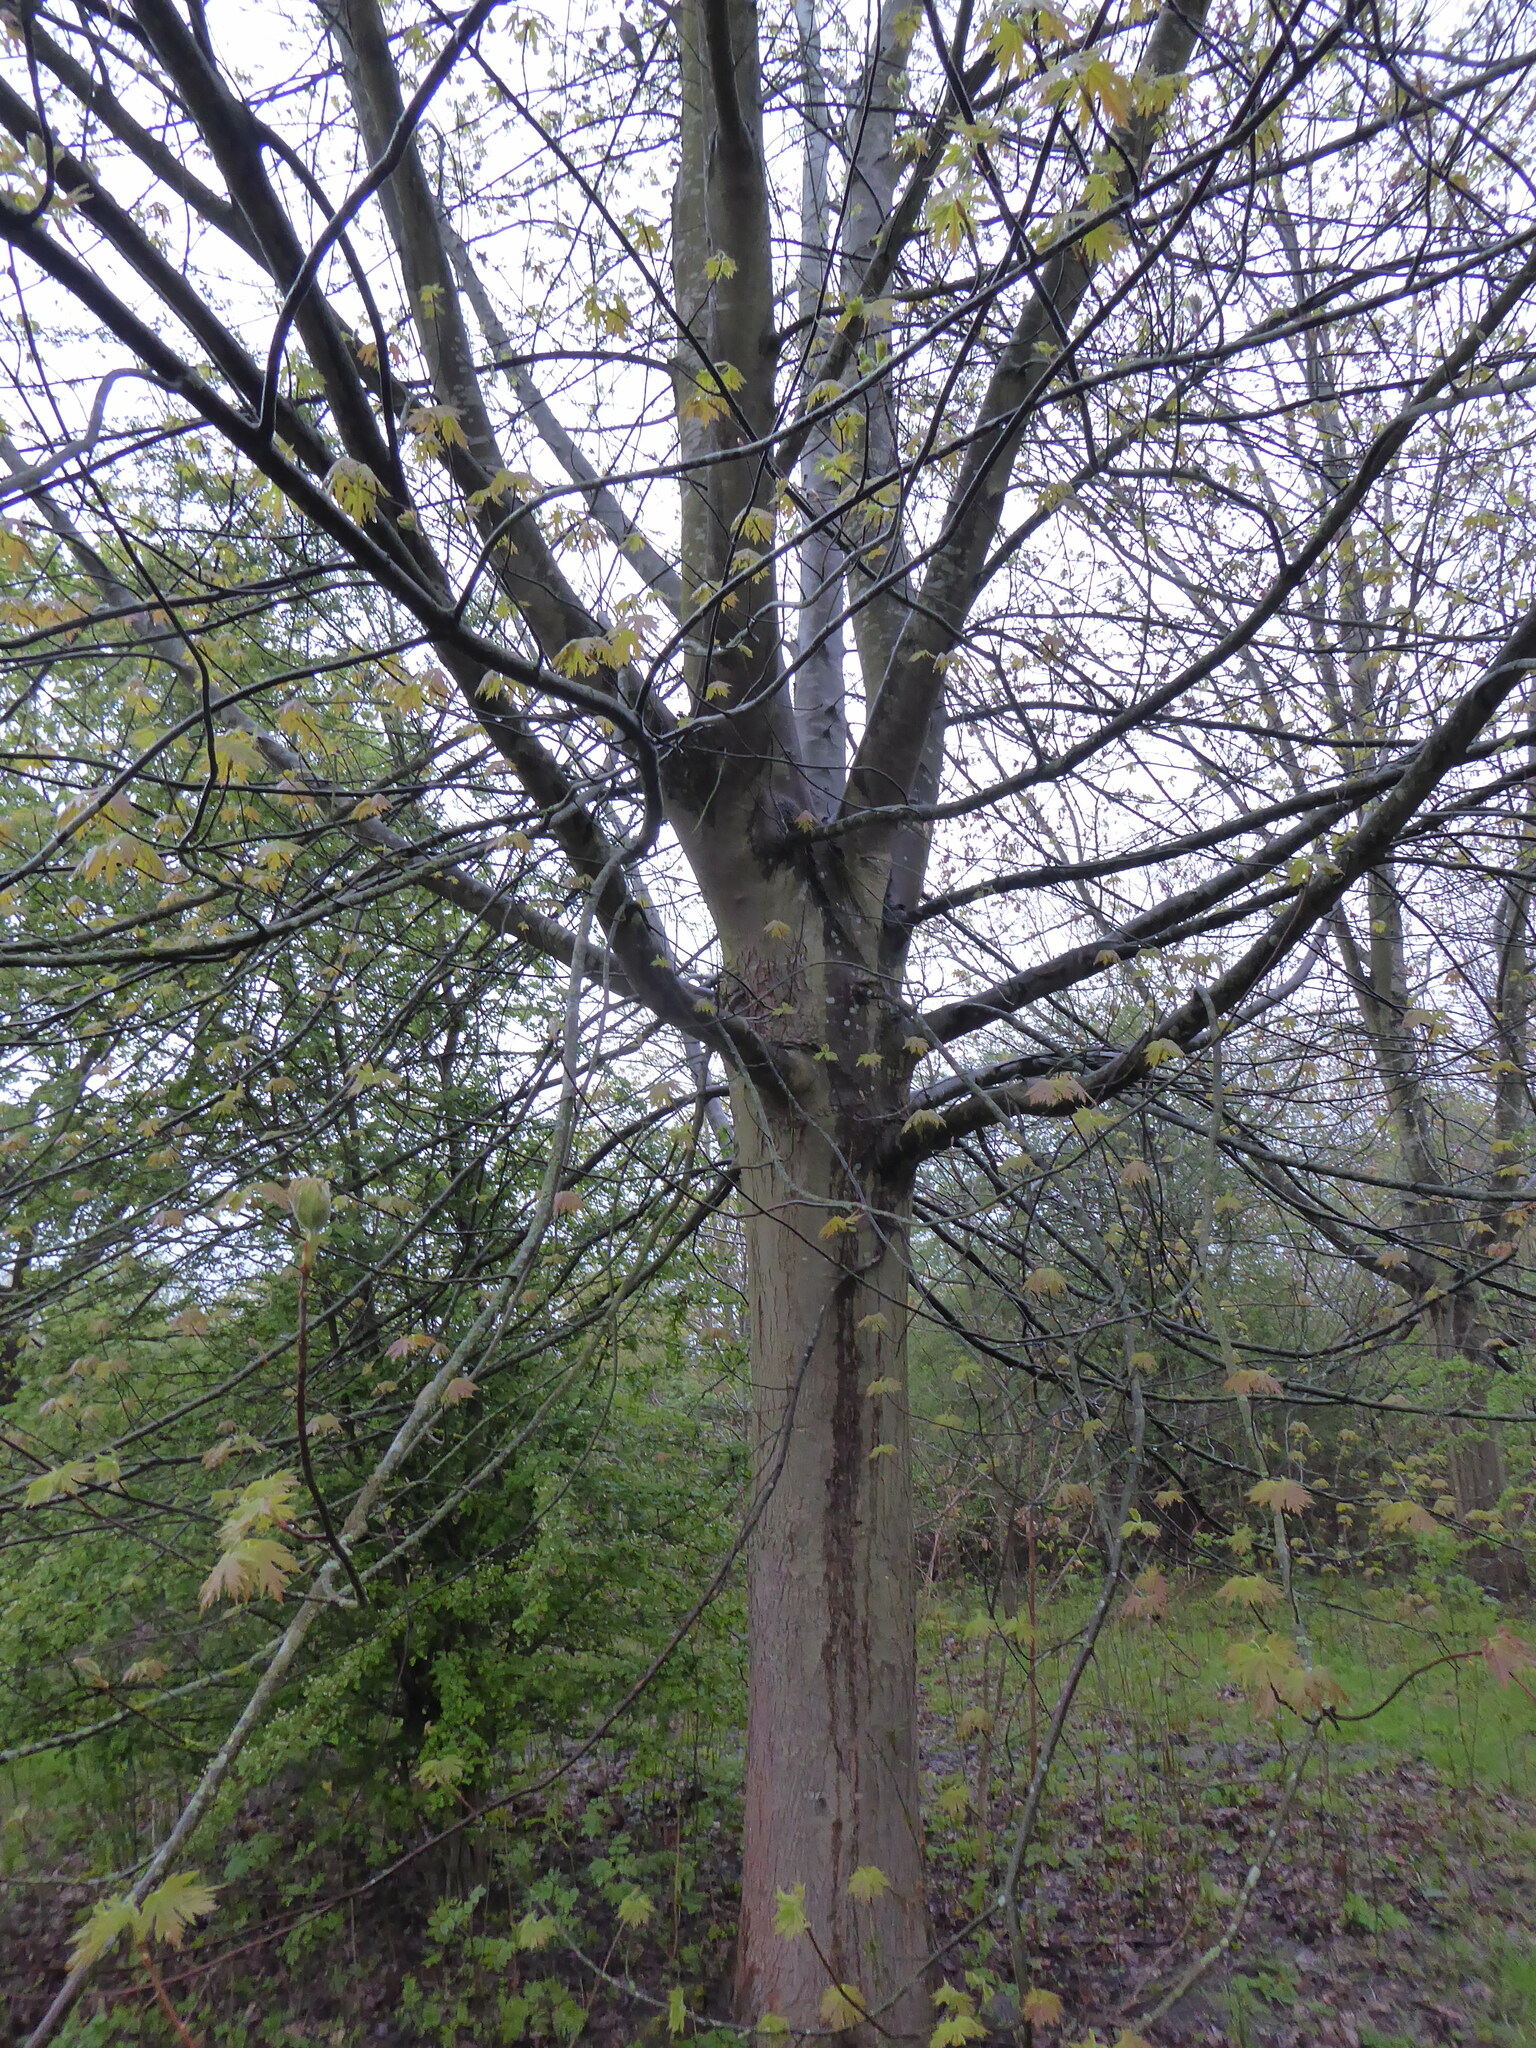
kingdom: Plantae
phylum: Tracheophyta
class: Magnoliopsida
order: Sapindales
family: Sapindaceae
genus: Acer
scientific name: Acer saccharinum
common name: Silver maple
